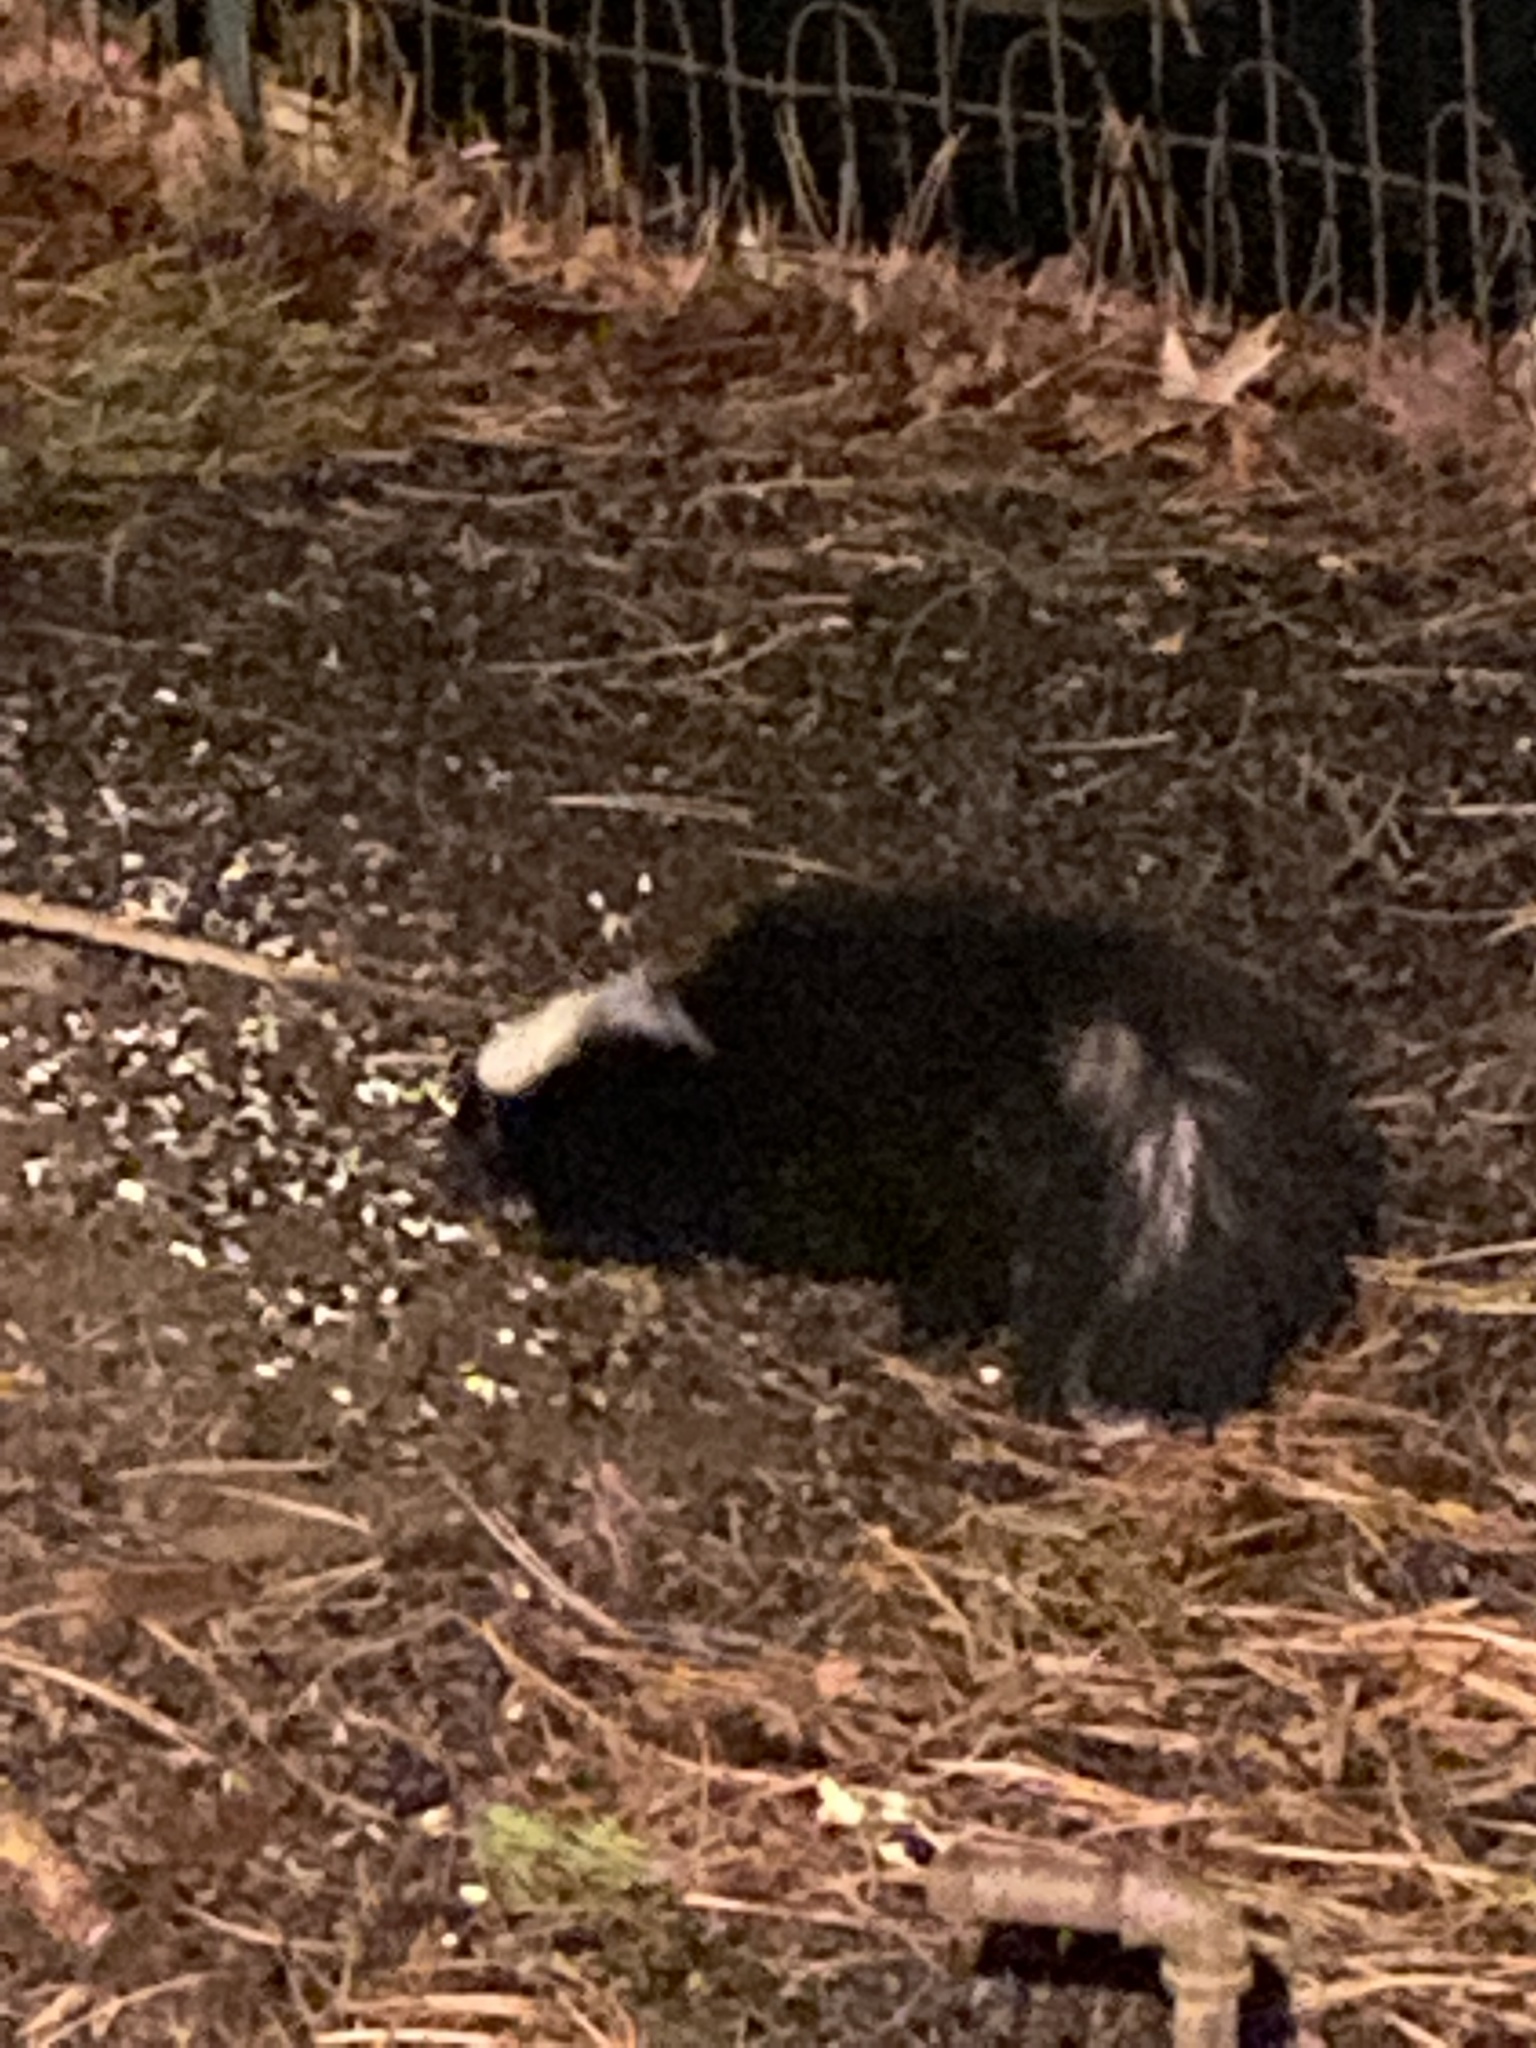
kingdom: Animalia
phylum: Chordata
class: Mammalia
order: Carnivora
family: Mephitidae
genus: Mephitis
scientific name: Mephitis mephitis
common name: Striped skunk
